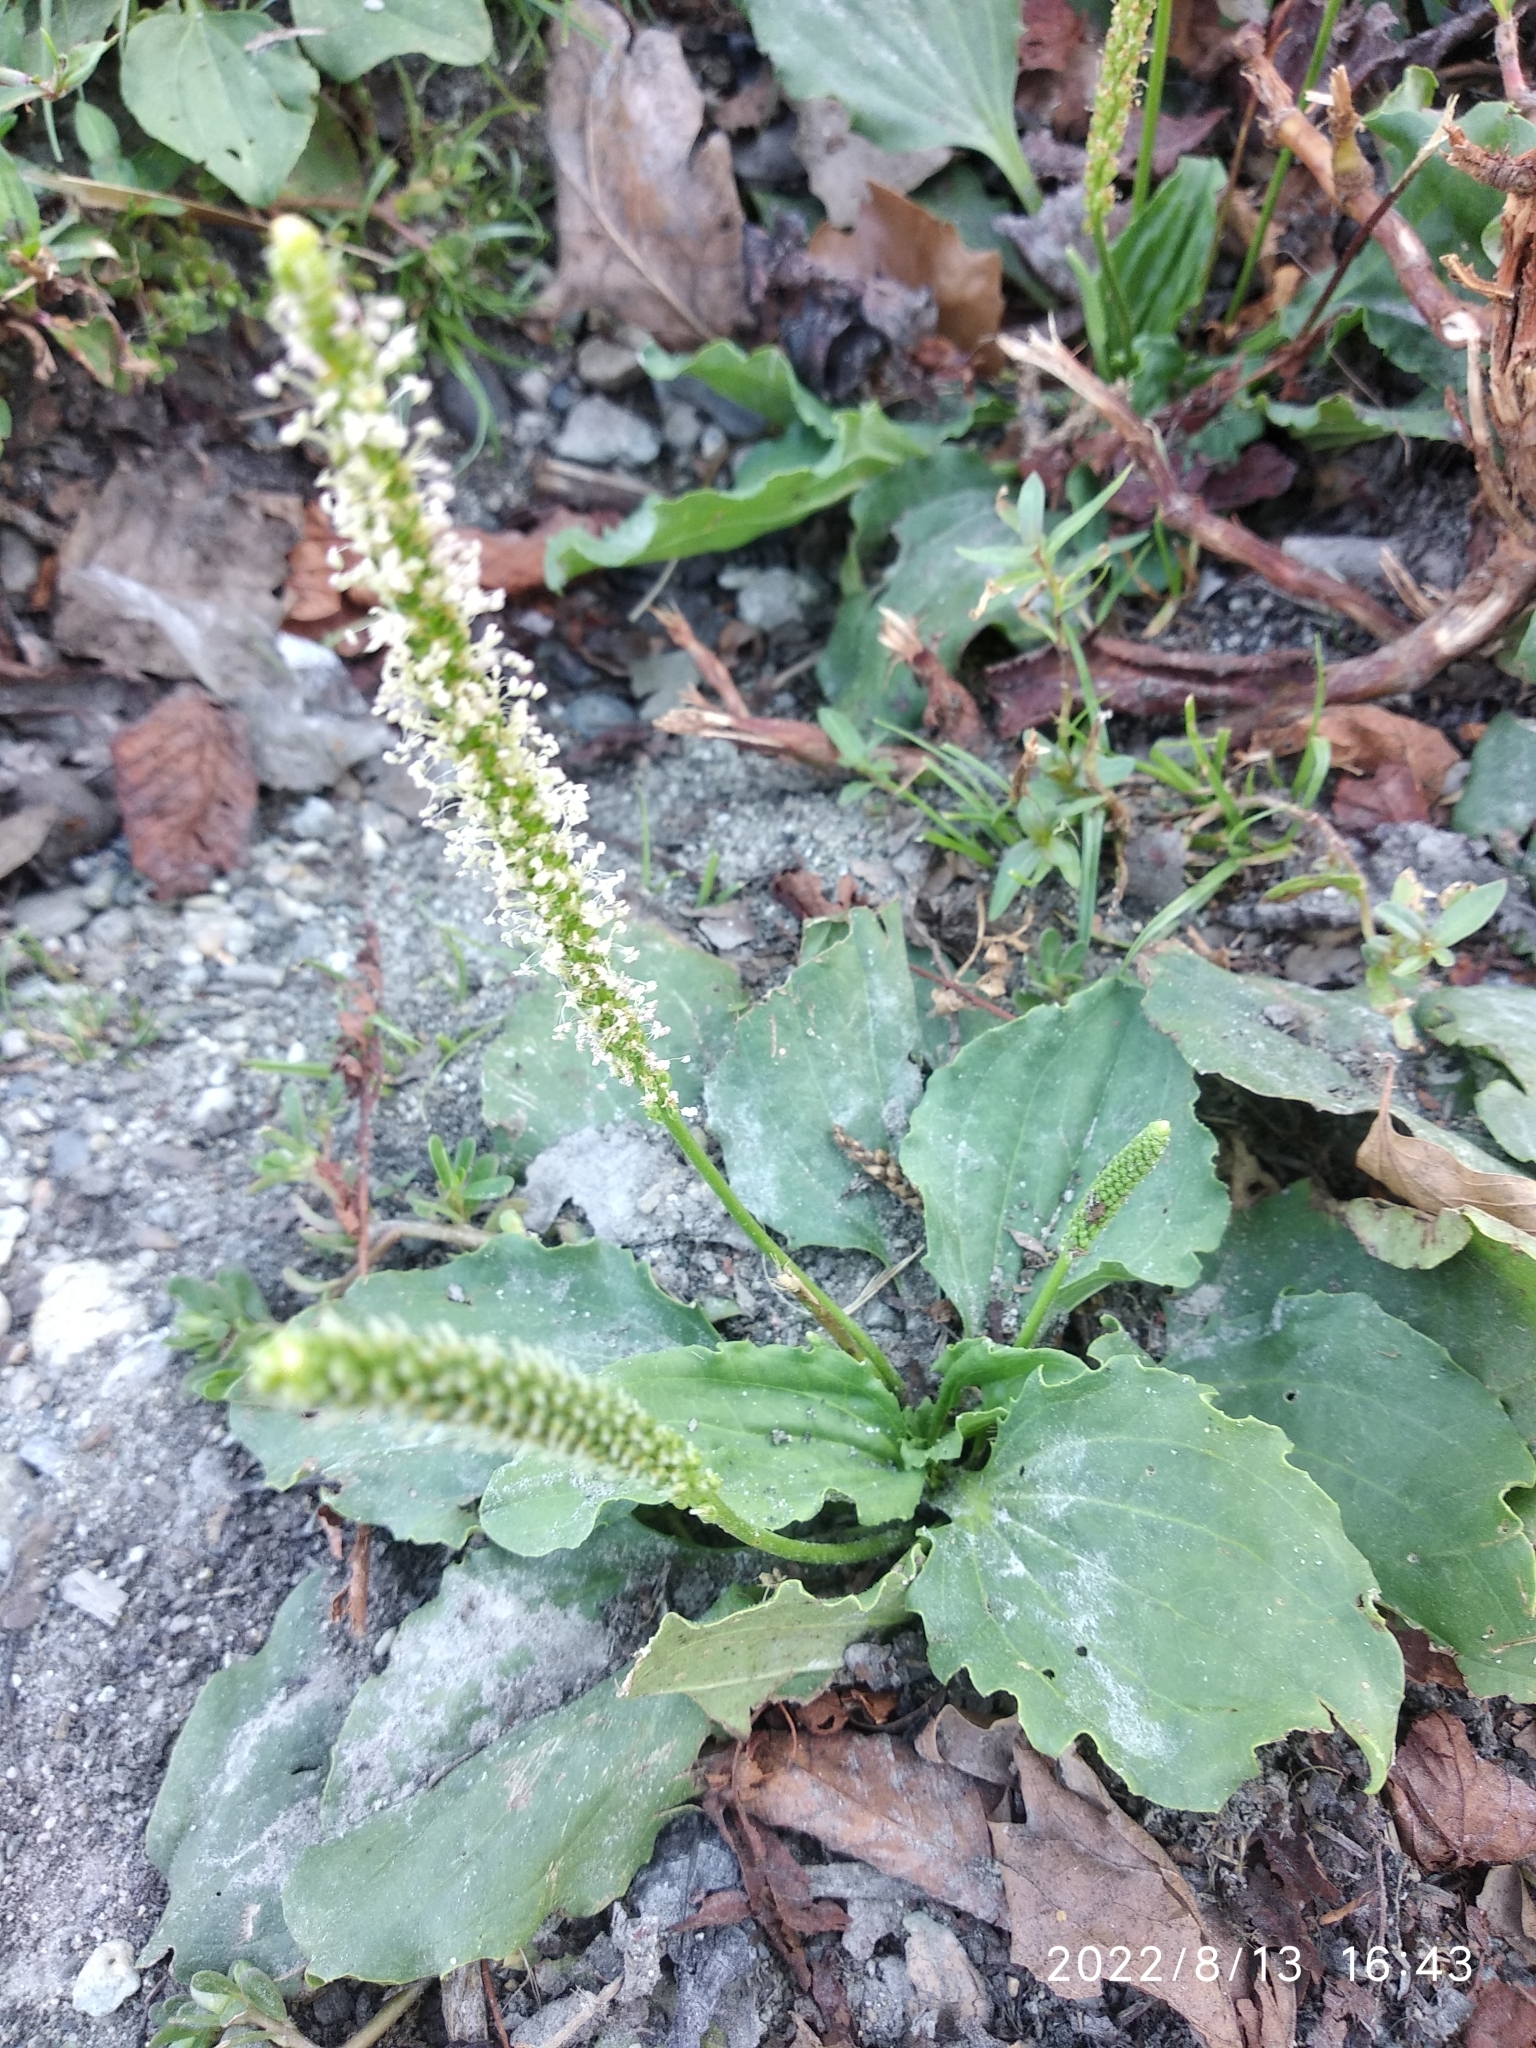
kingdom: Plantae
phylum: Tracheophyta
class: Magnoliopsida
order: Lamiales
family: Plantaginaceae
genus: Plantago
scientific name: Plantago major
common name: Common plantain
